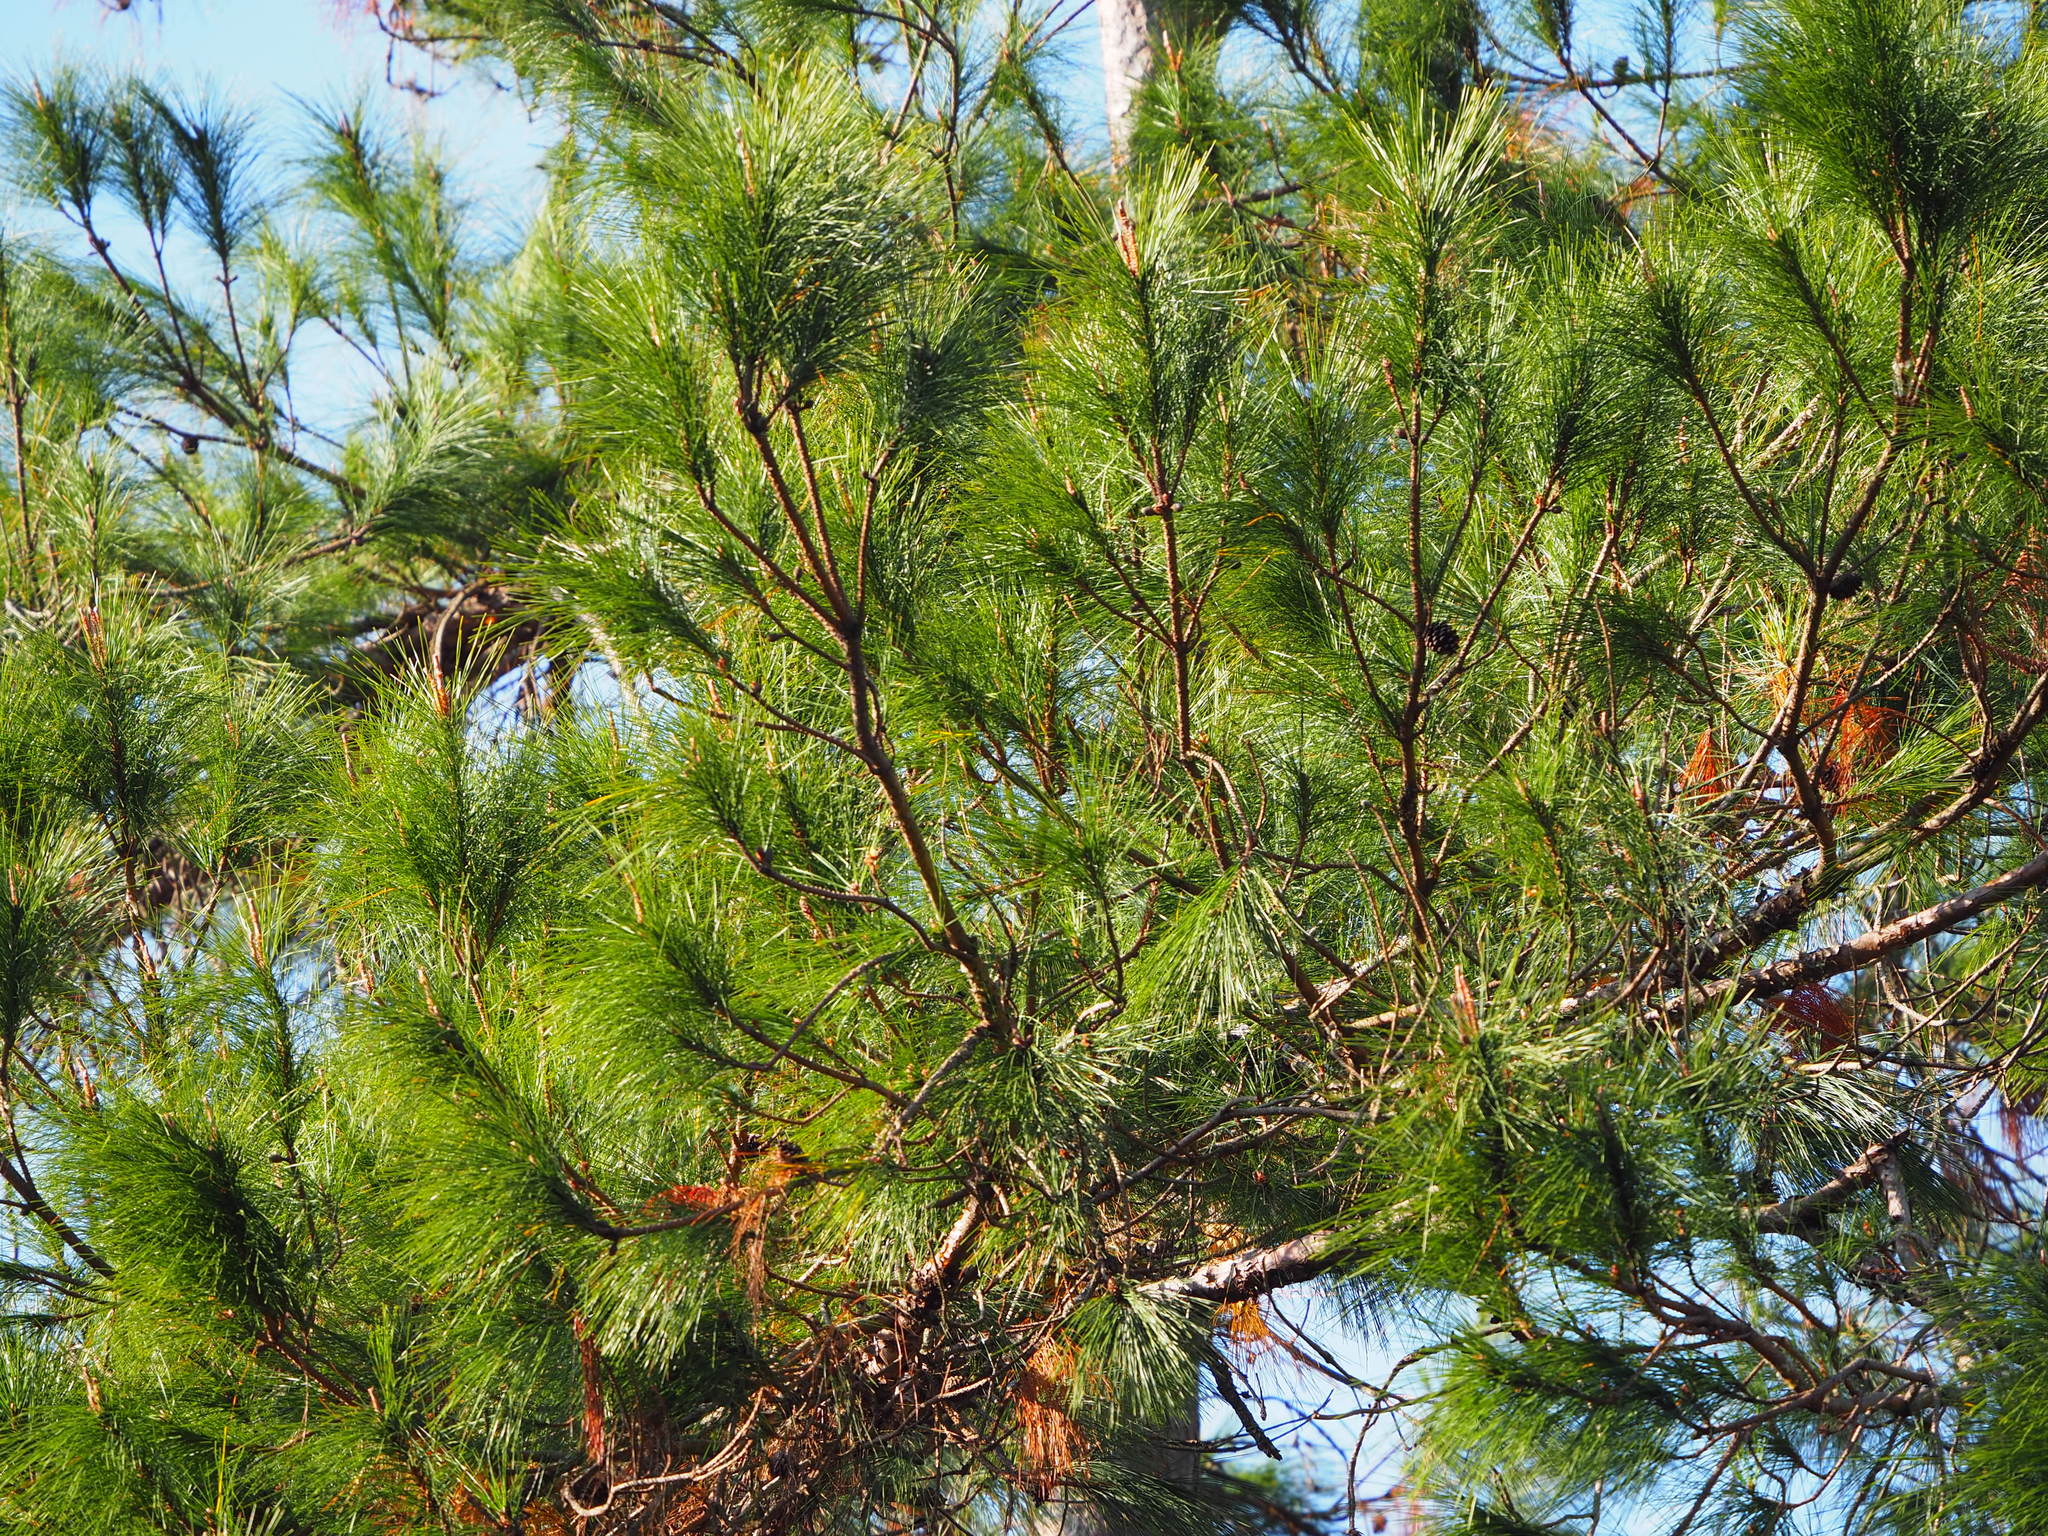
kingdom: Plantae
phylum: Tracheophyta
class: Pinopsida
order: Pinales
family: Pinaceae
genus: Pinus
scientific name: Pinus taiwanensis
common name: Formosa pine
